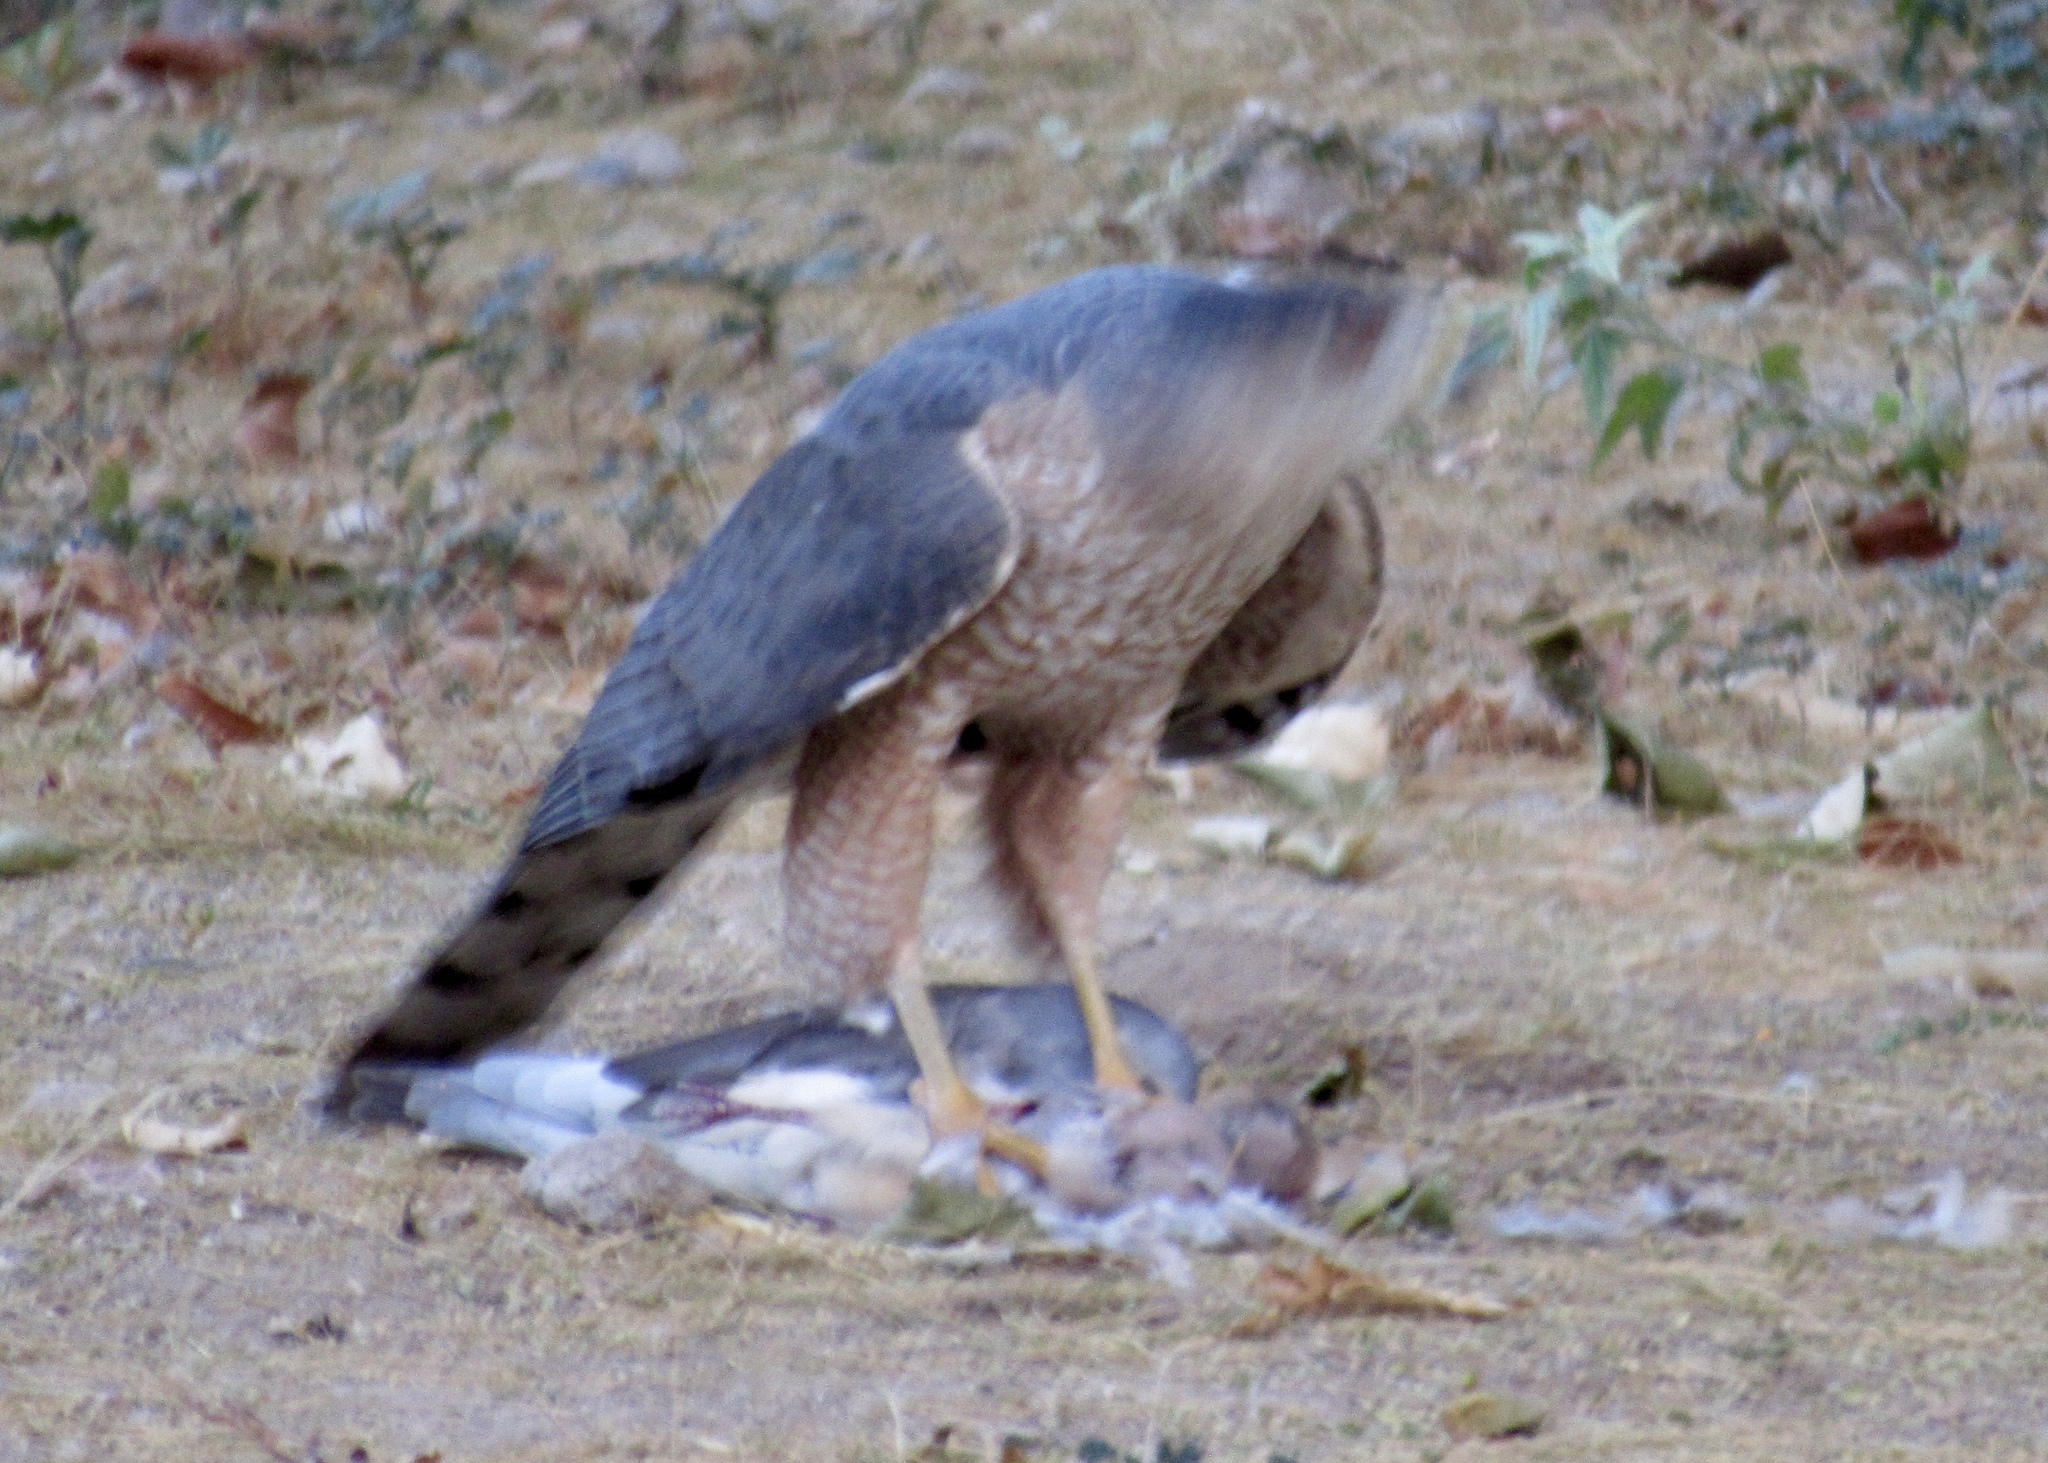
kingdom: Animalia
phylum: Chordata
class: Aves
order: Accipitriformes
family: Accipitridae
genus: Accipiter
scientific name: Accipiter cooperii
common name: Cooper's hawk
